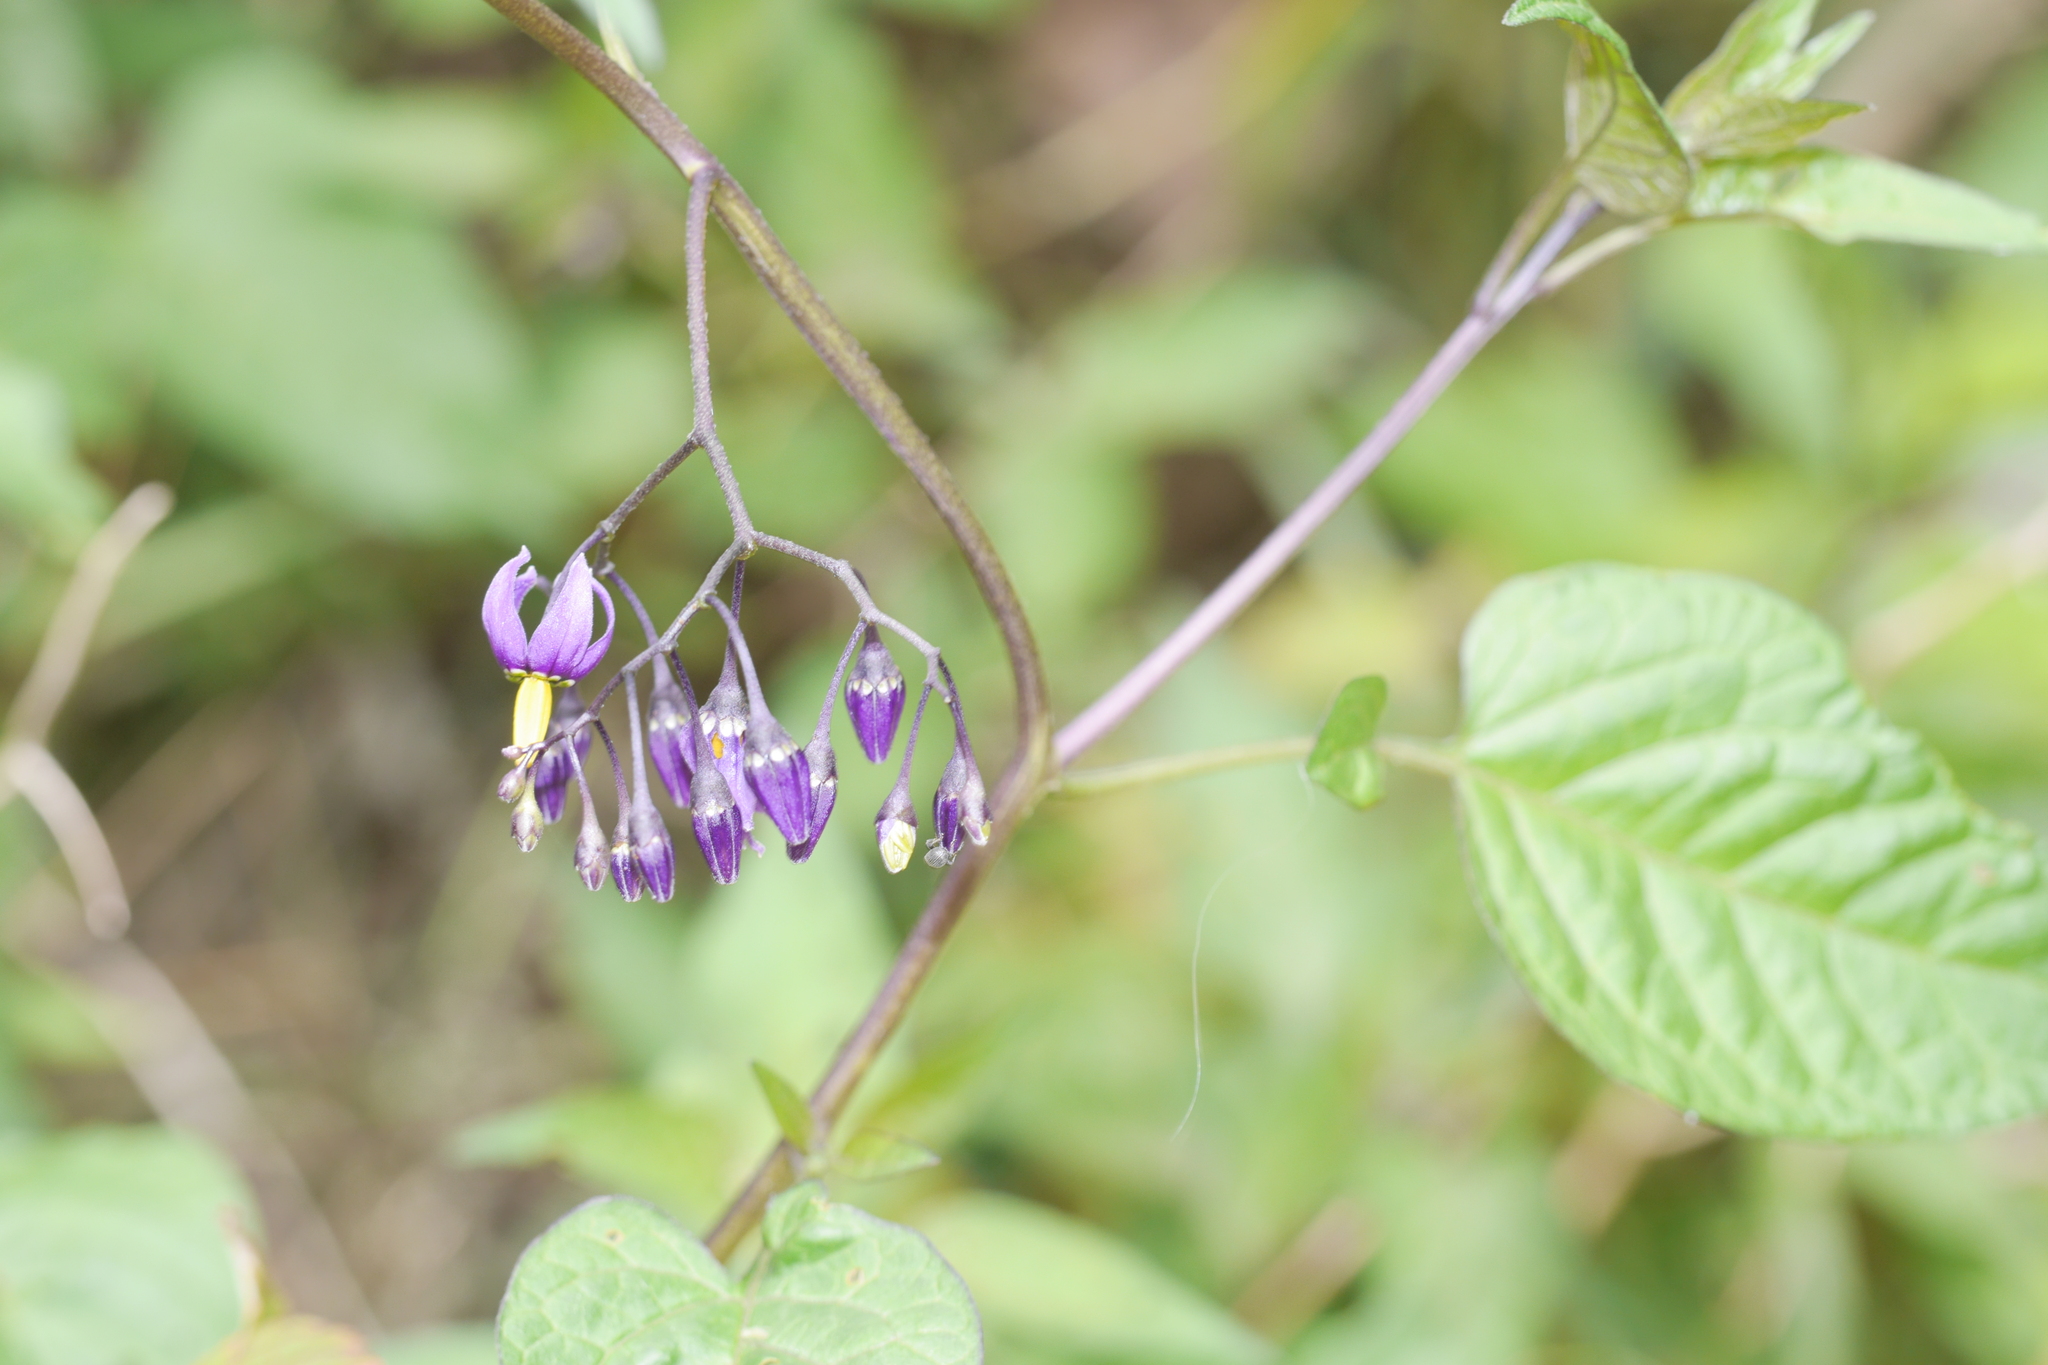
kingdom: Plantae
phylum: Tracheophyta
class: Magnoliopsida
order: Solanales
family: Solanaceae
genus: Solanum
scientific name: Solanum dulcamara
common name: Climbing nightshade
